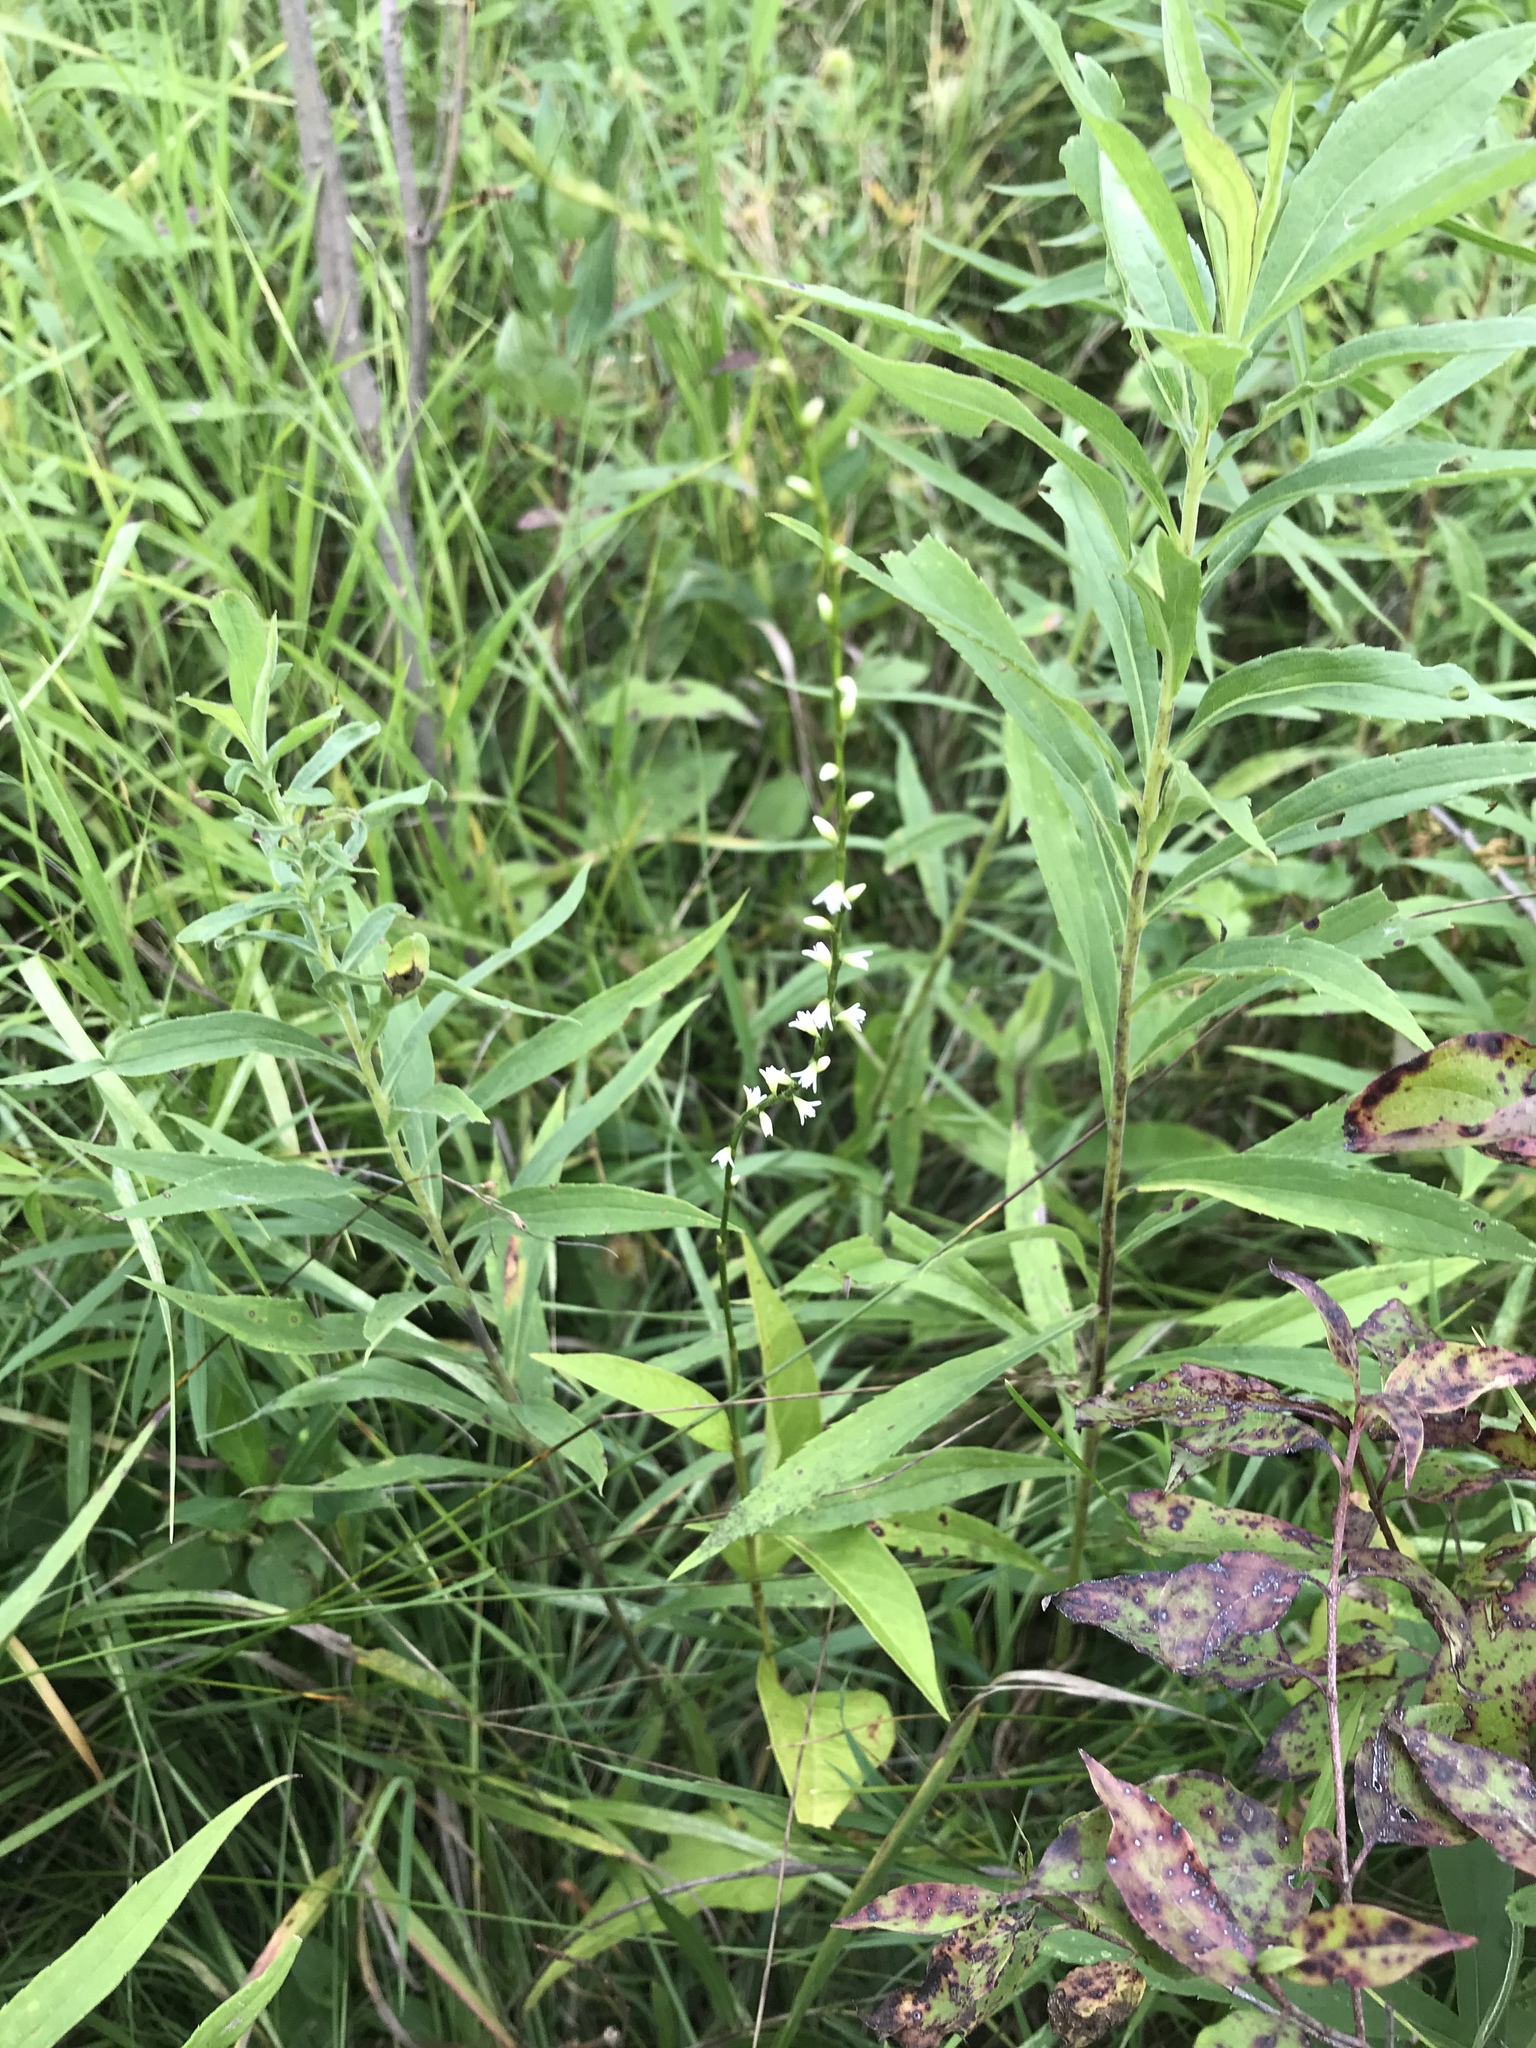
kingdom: Plantae
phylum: Tracheophyta
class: Magnoliopsida
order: Caryophyllales
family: Polygonaceae
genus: Persicaria
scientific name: Persicaria virginiana
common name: Jumpseed
